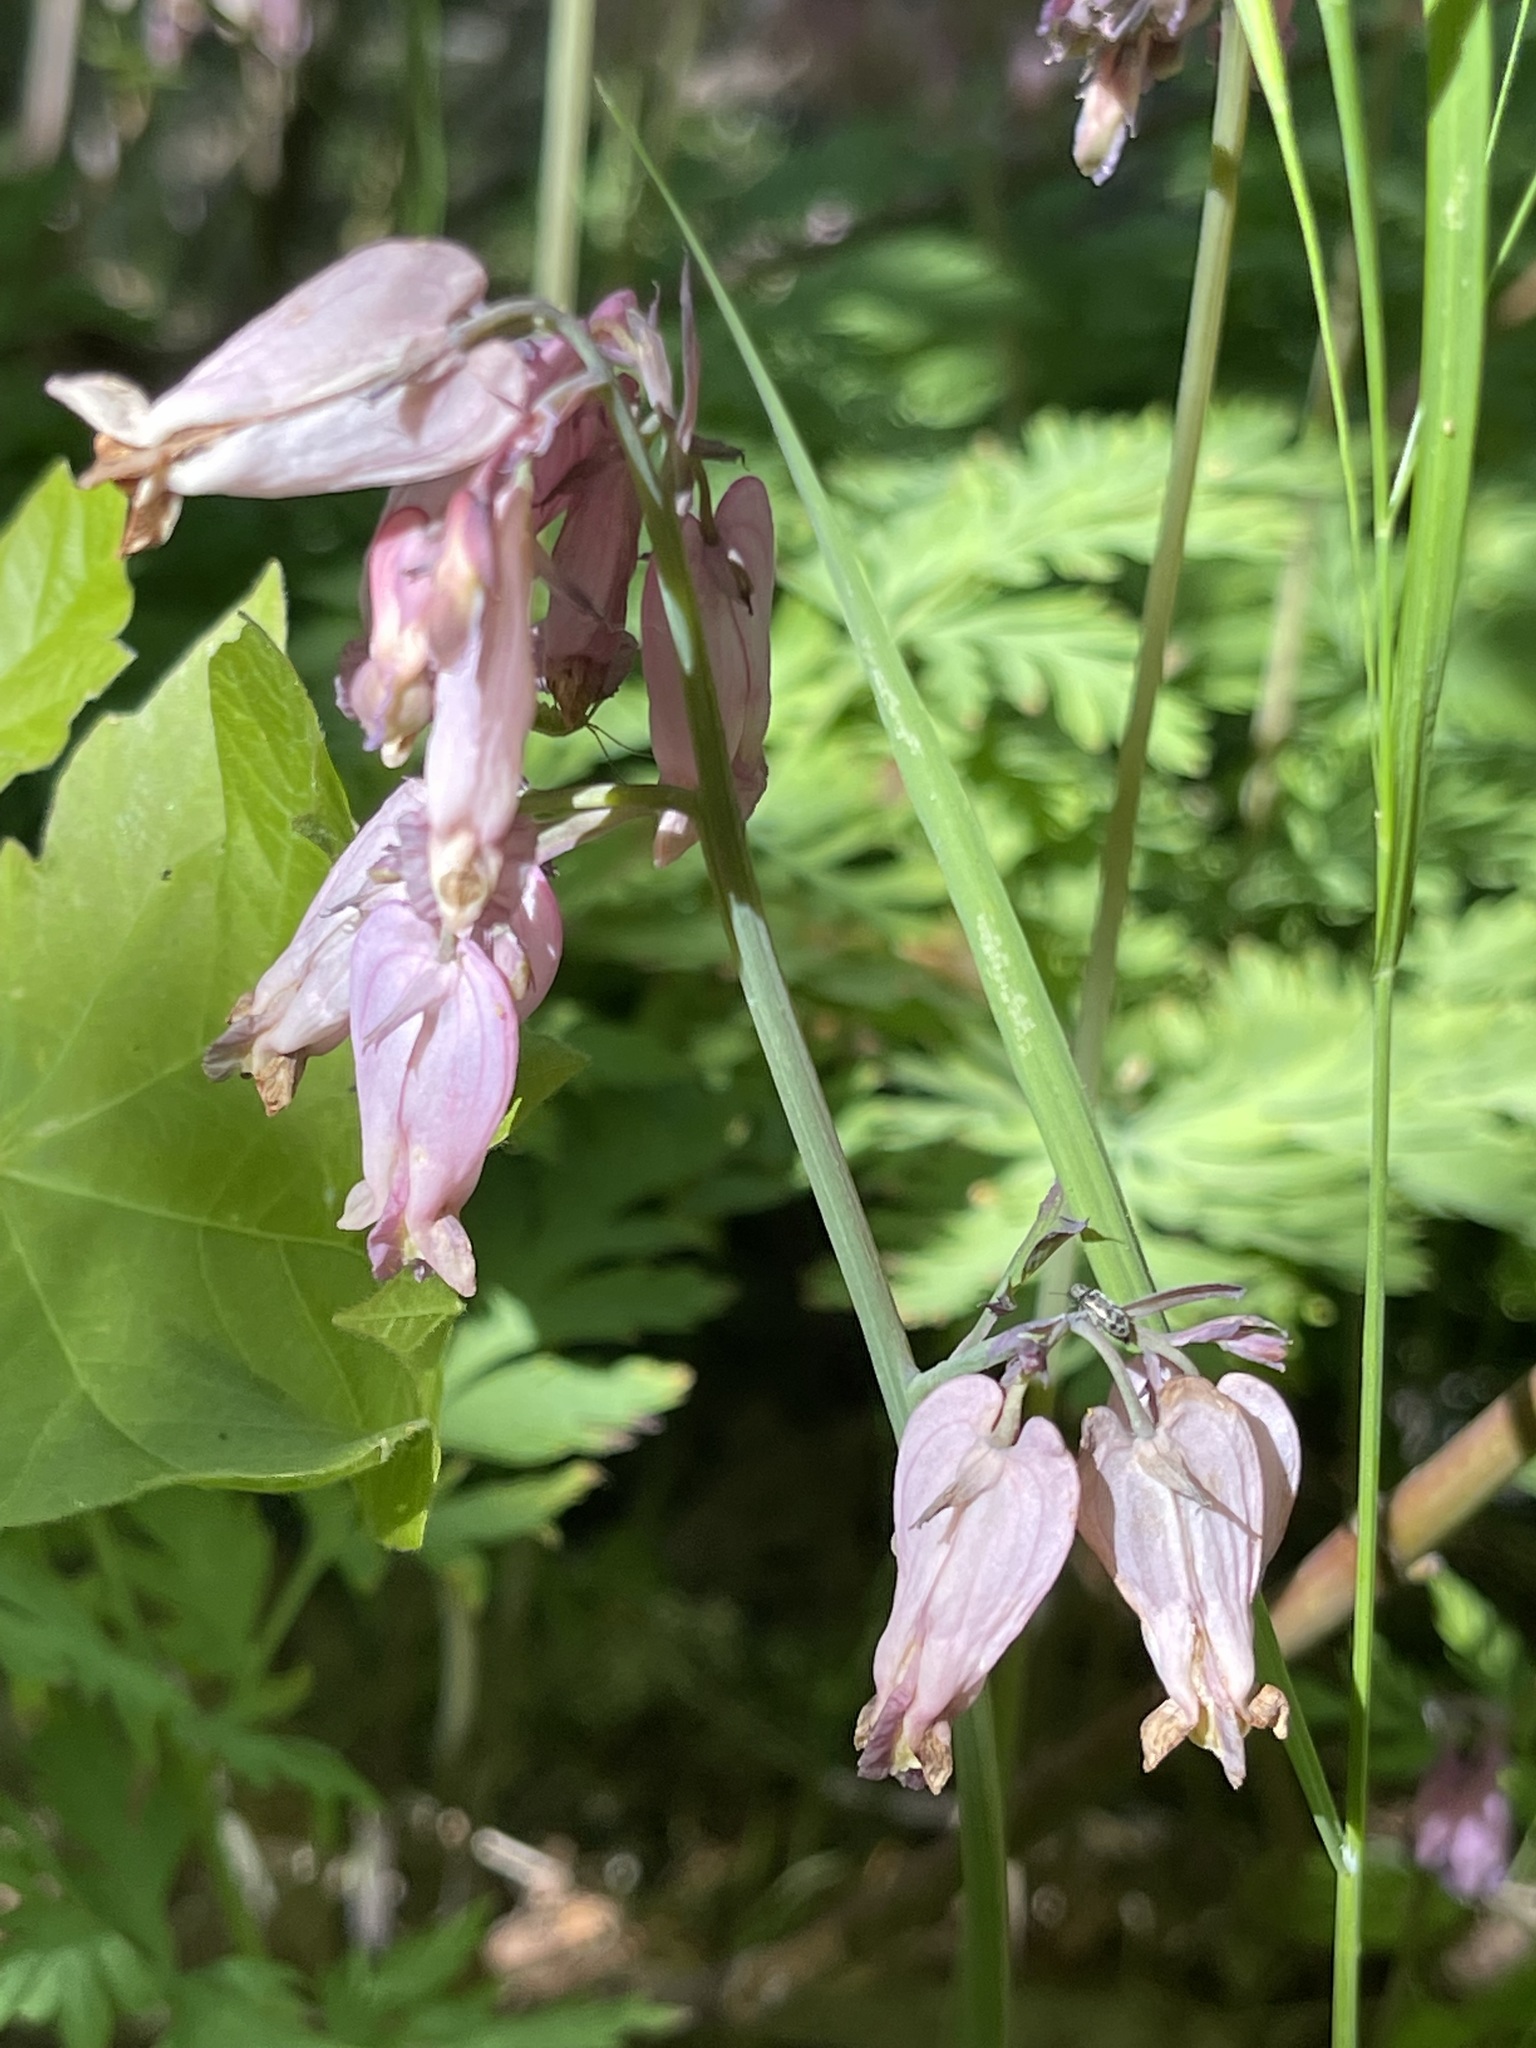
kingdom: Plantae
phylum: Tracheophyta
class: Magnoliopsida
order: Ranunculales
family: Papaveraceae
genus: Dicentra
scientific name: Dicentra formosa
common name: Bleeding-heart
